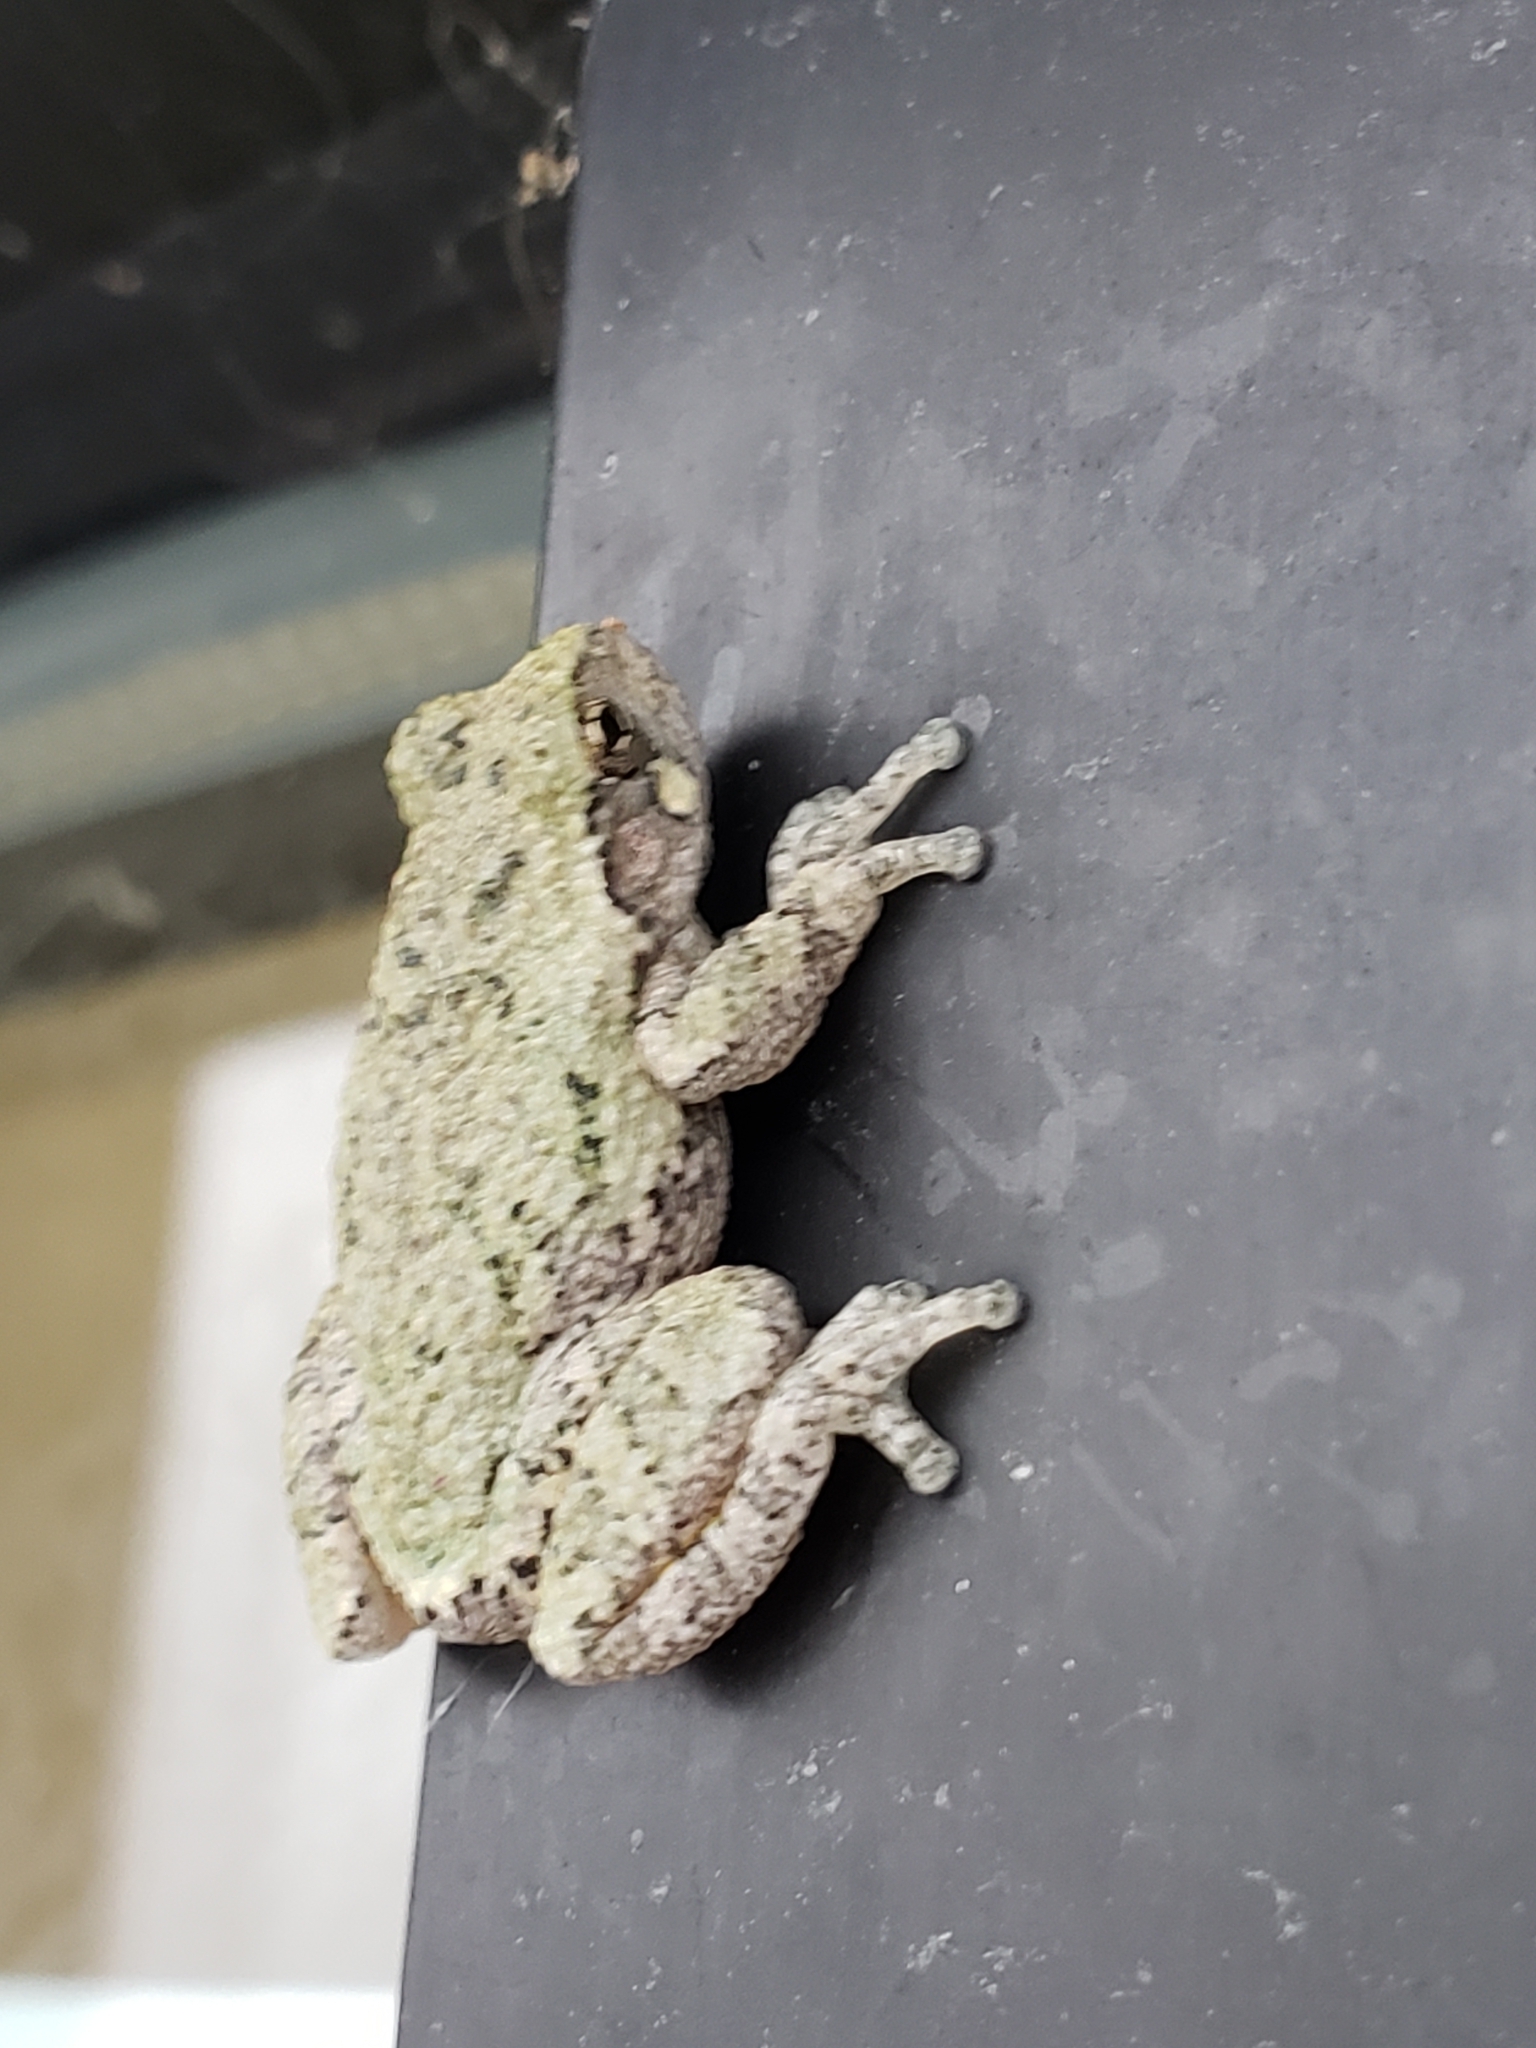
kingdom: Animalia
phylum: Chordata
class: Amphibia
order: Anura
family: Hylidae
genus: Dryophytes
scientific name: Dryophytes versicolor
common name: Gray treefrog
